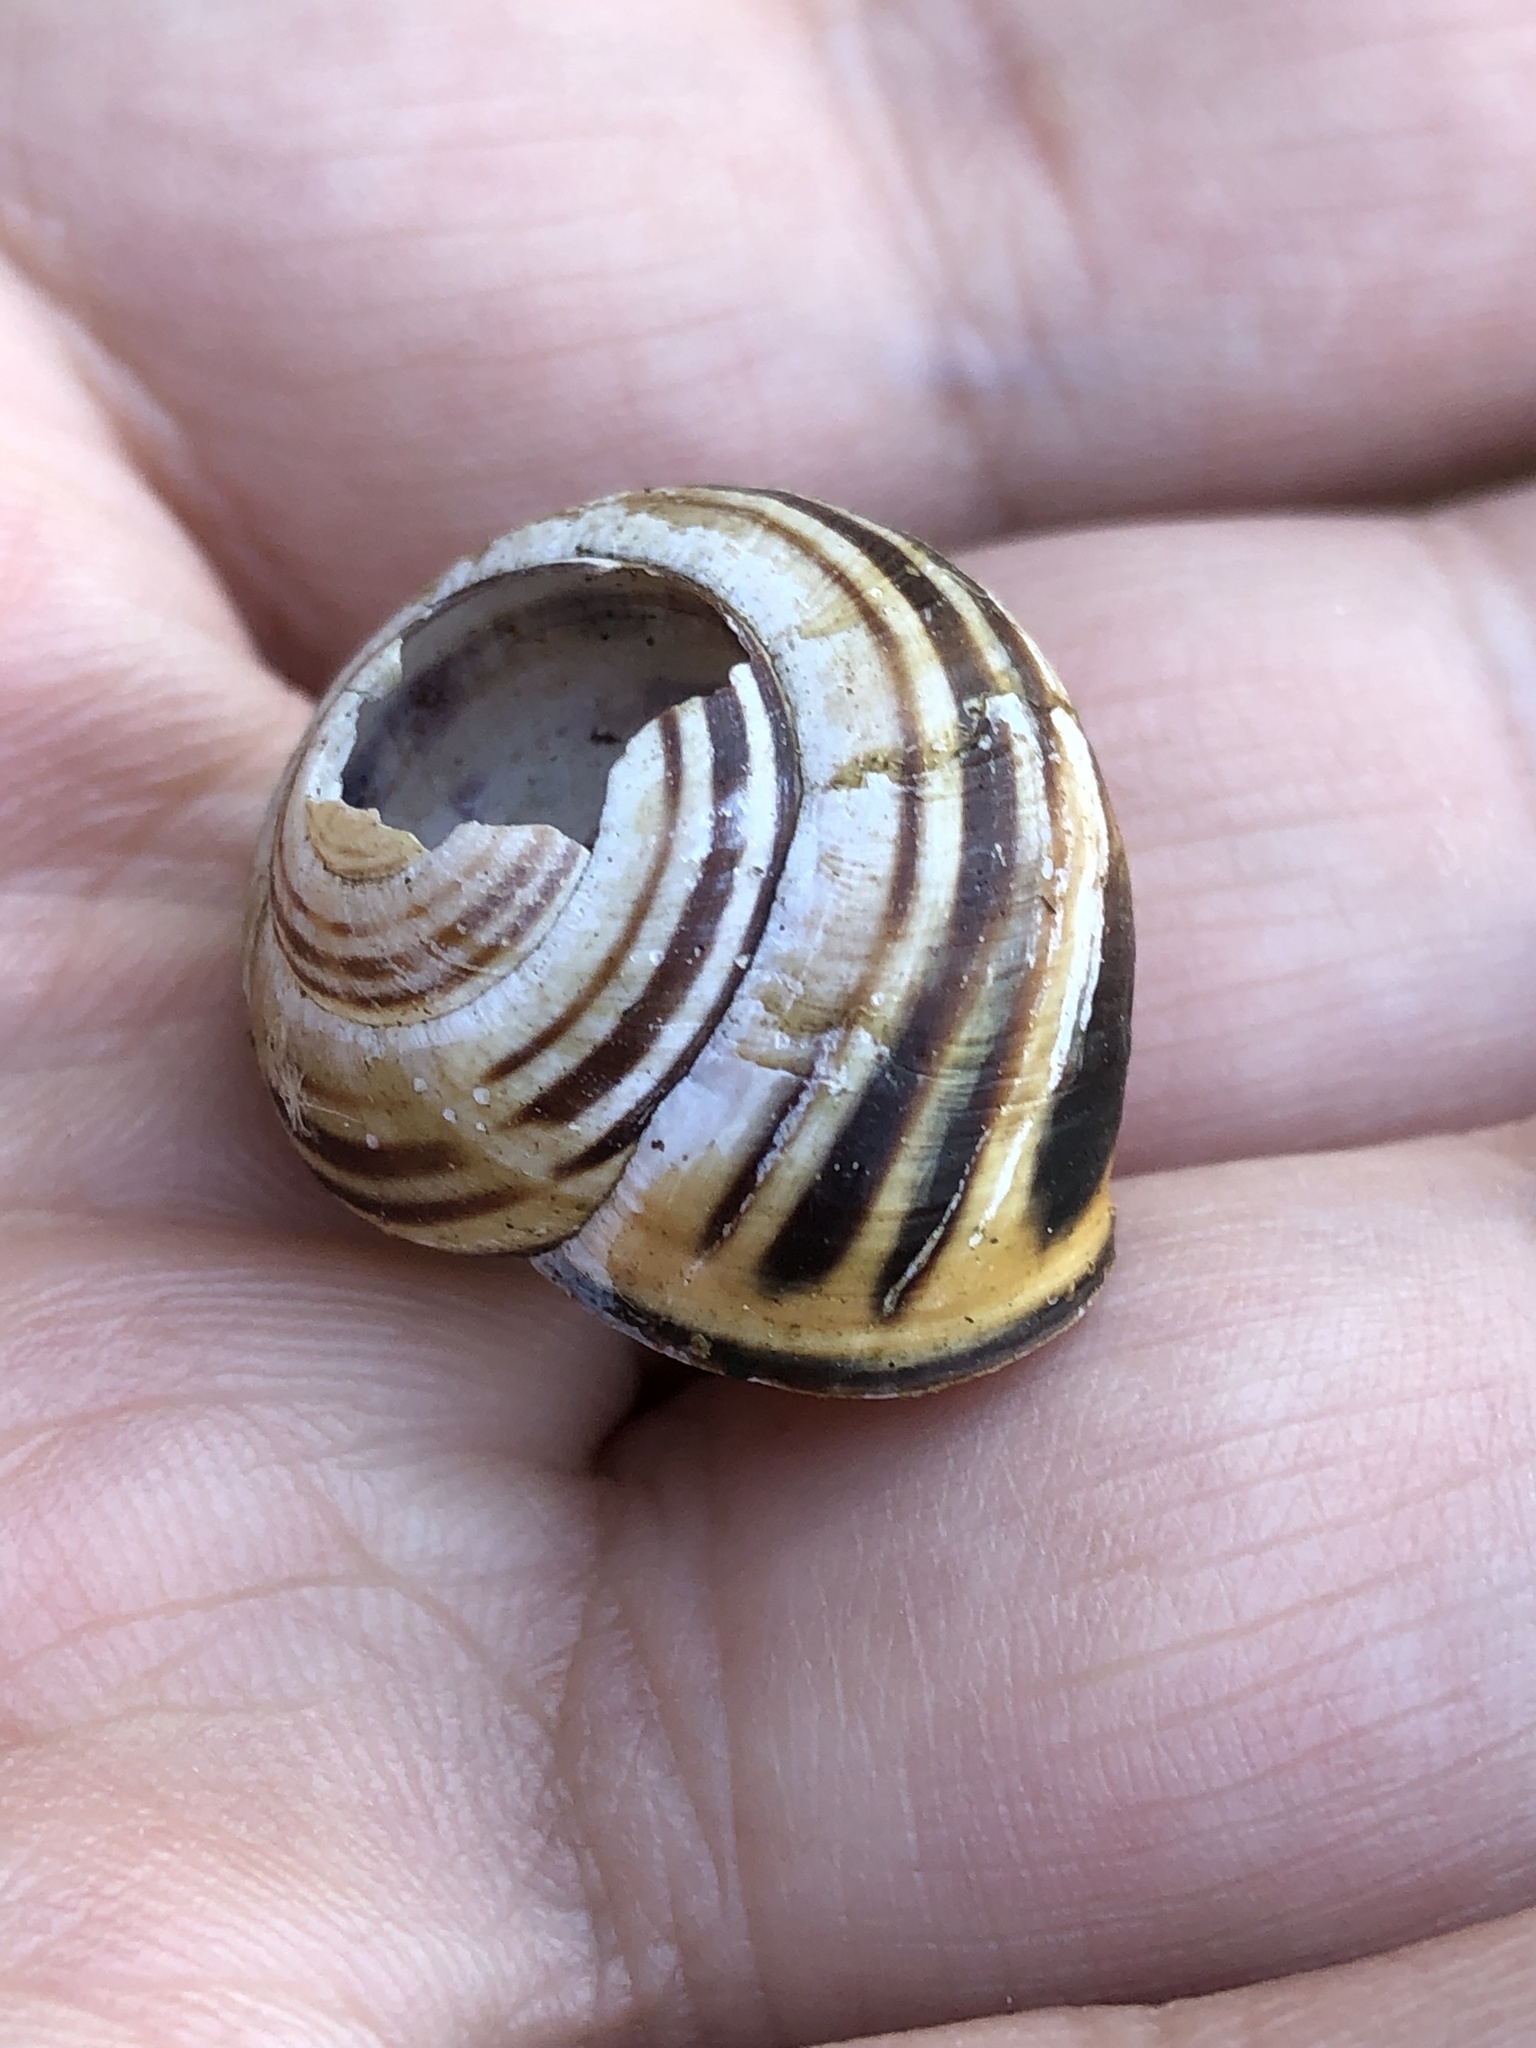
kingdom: Animalia
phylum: Mollusca
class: Gastropoda
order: Stylommatophora
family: Helicidae
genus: Cepaea
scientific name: Cepaea nemoralis
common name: Grovesnail
